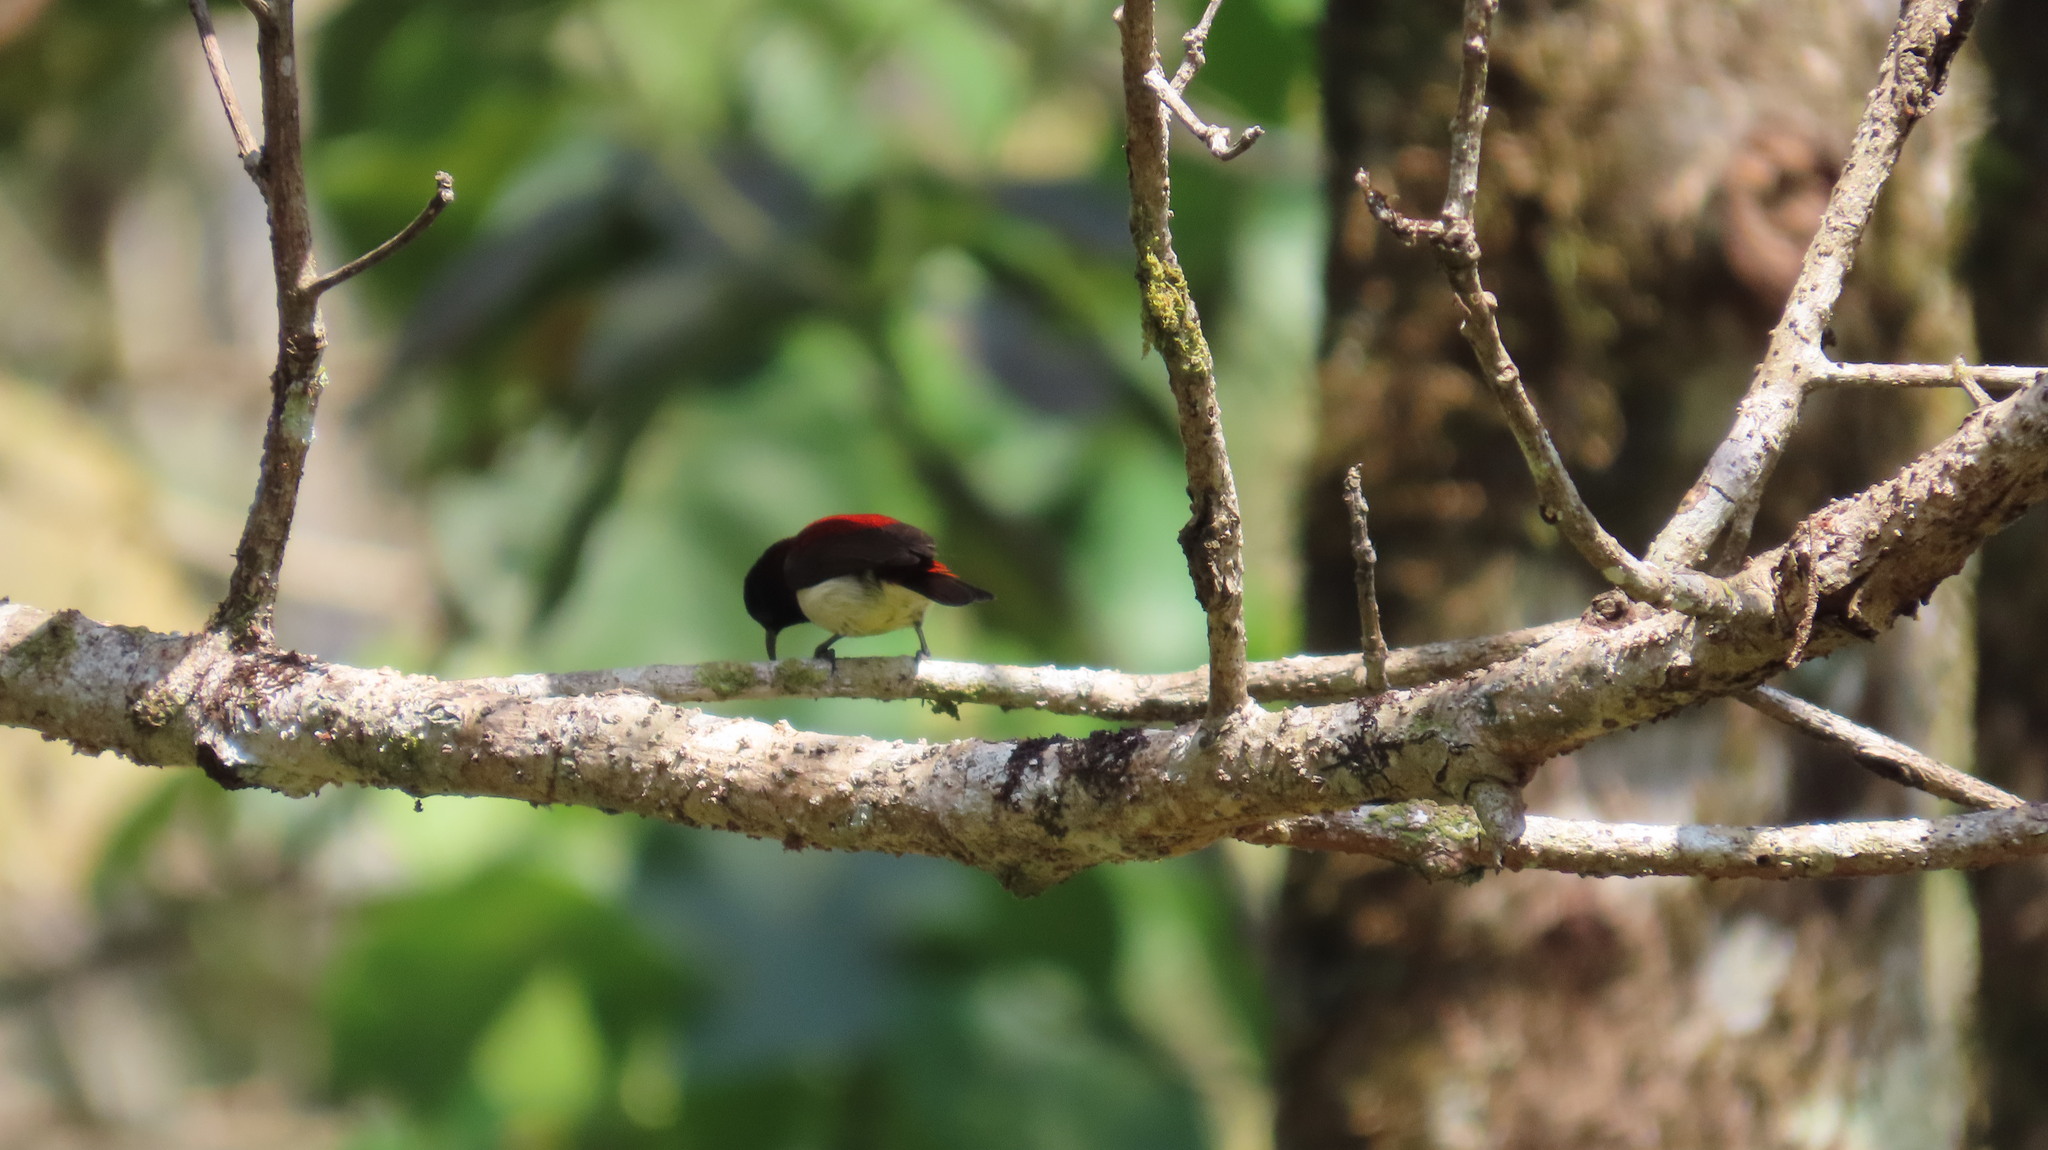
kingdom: Animalia
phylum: Chordata
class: Aves
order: Passeriformes
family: Nectariniidae
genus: Leptocoma
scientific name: Leptocoma minima
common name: Crimson-backed sunbird
